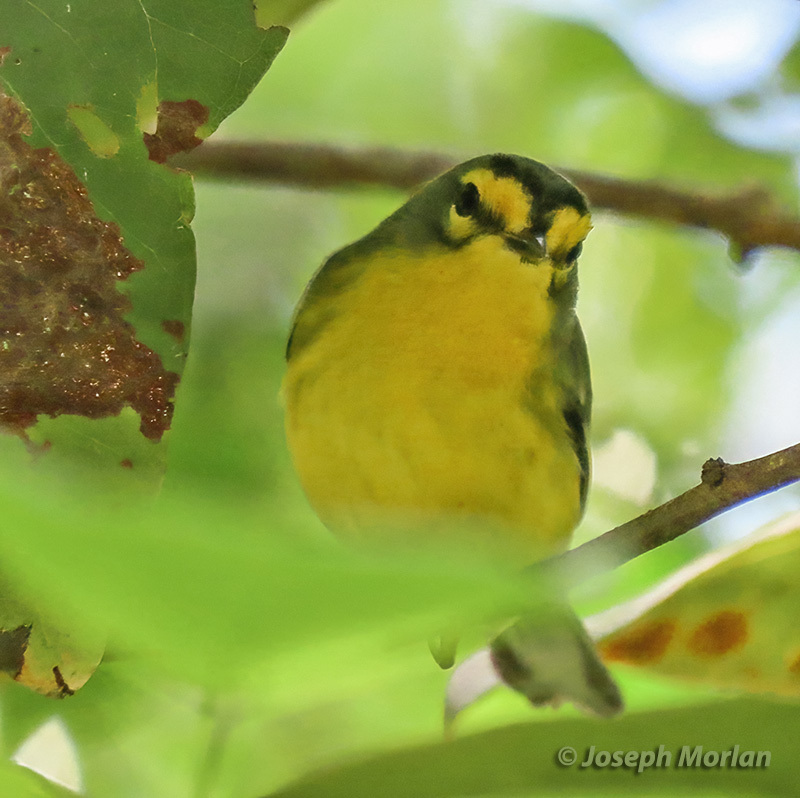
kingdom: Animalia
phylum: Chordata
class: Aves
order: Passeriformes
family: Parulidae
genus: Setophaga
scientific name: Setophaga delicata
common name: St. lucia warbler
